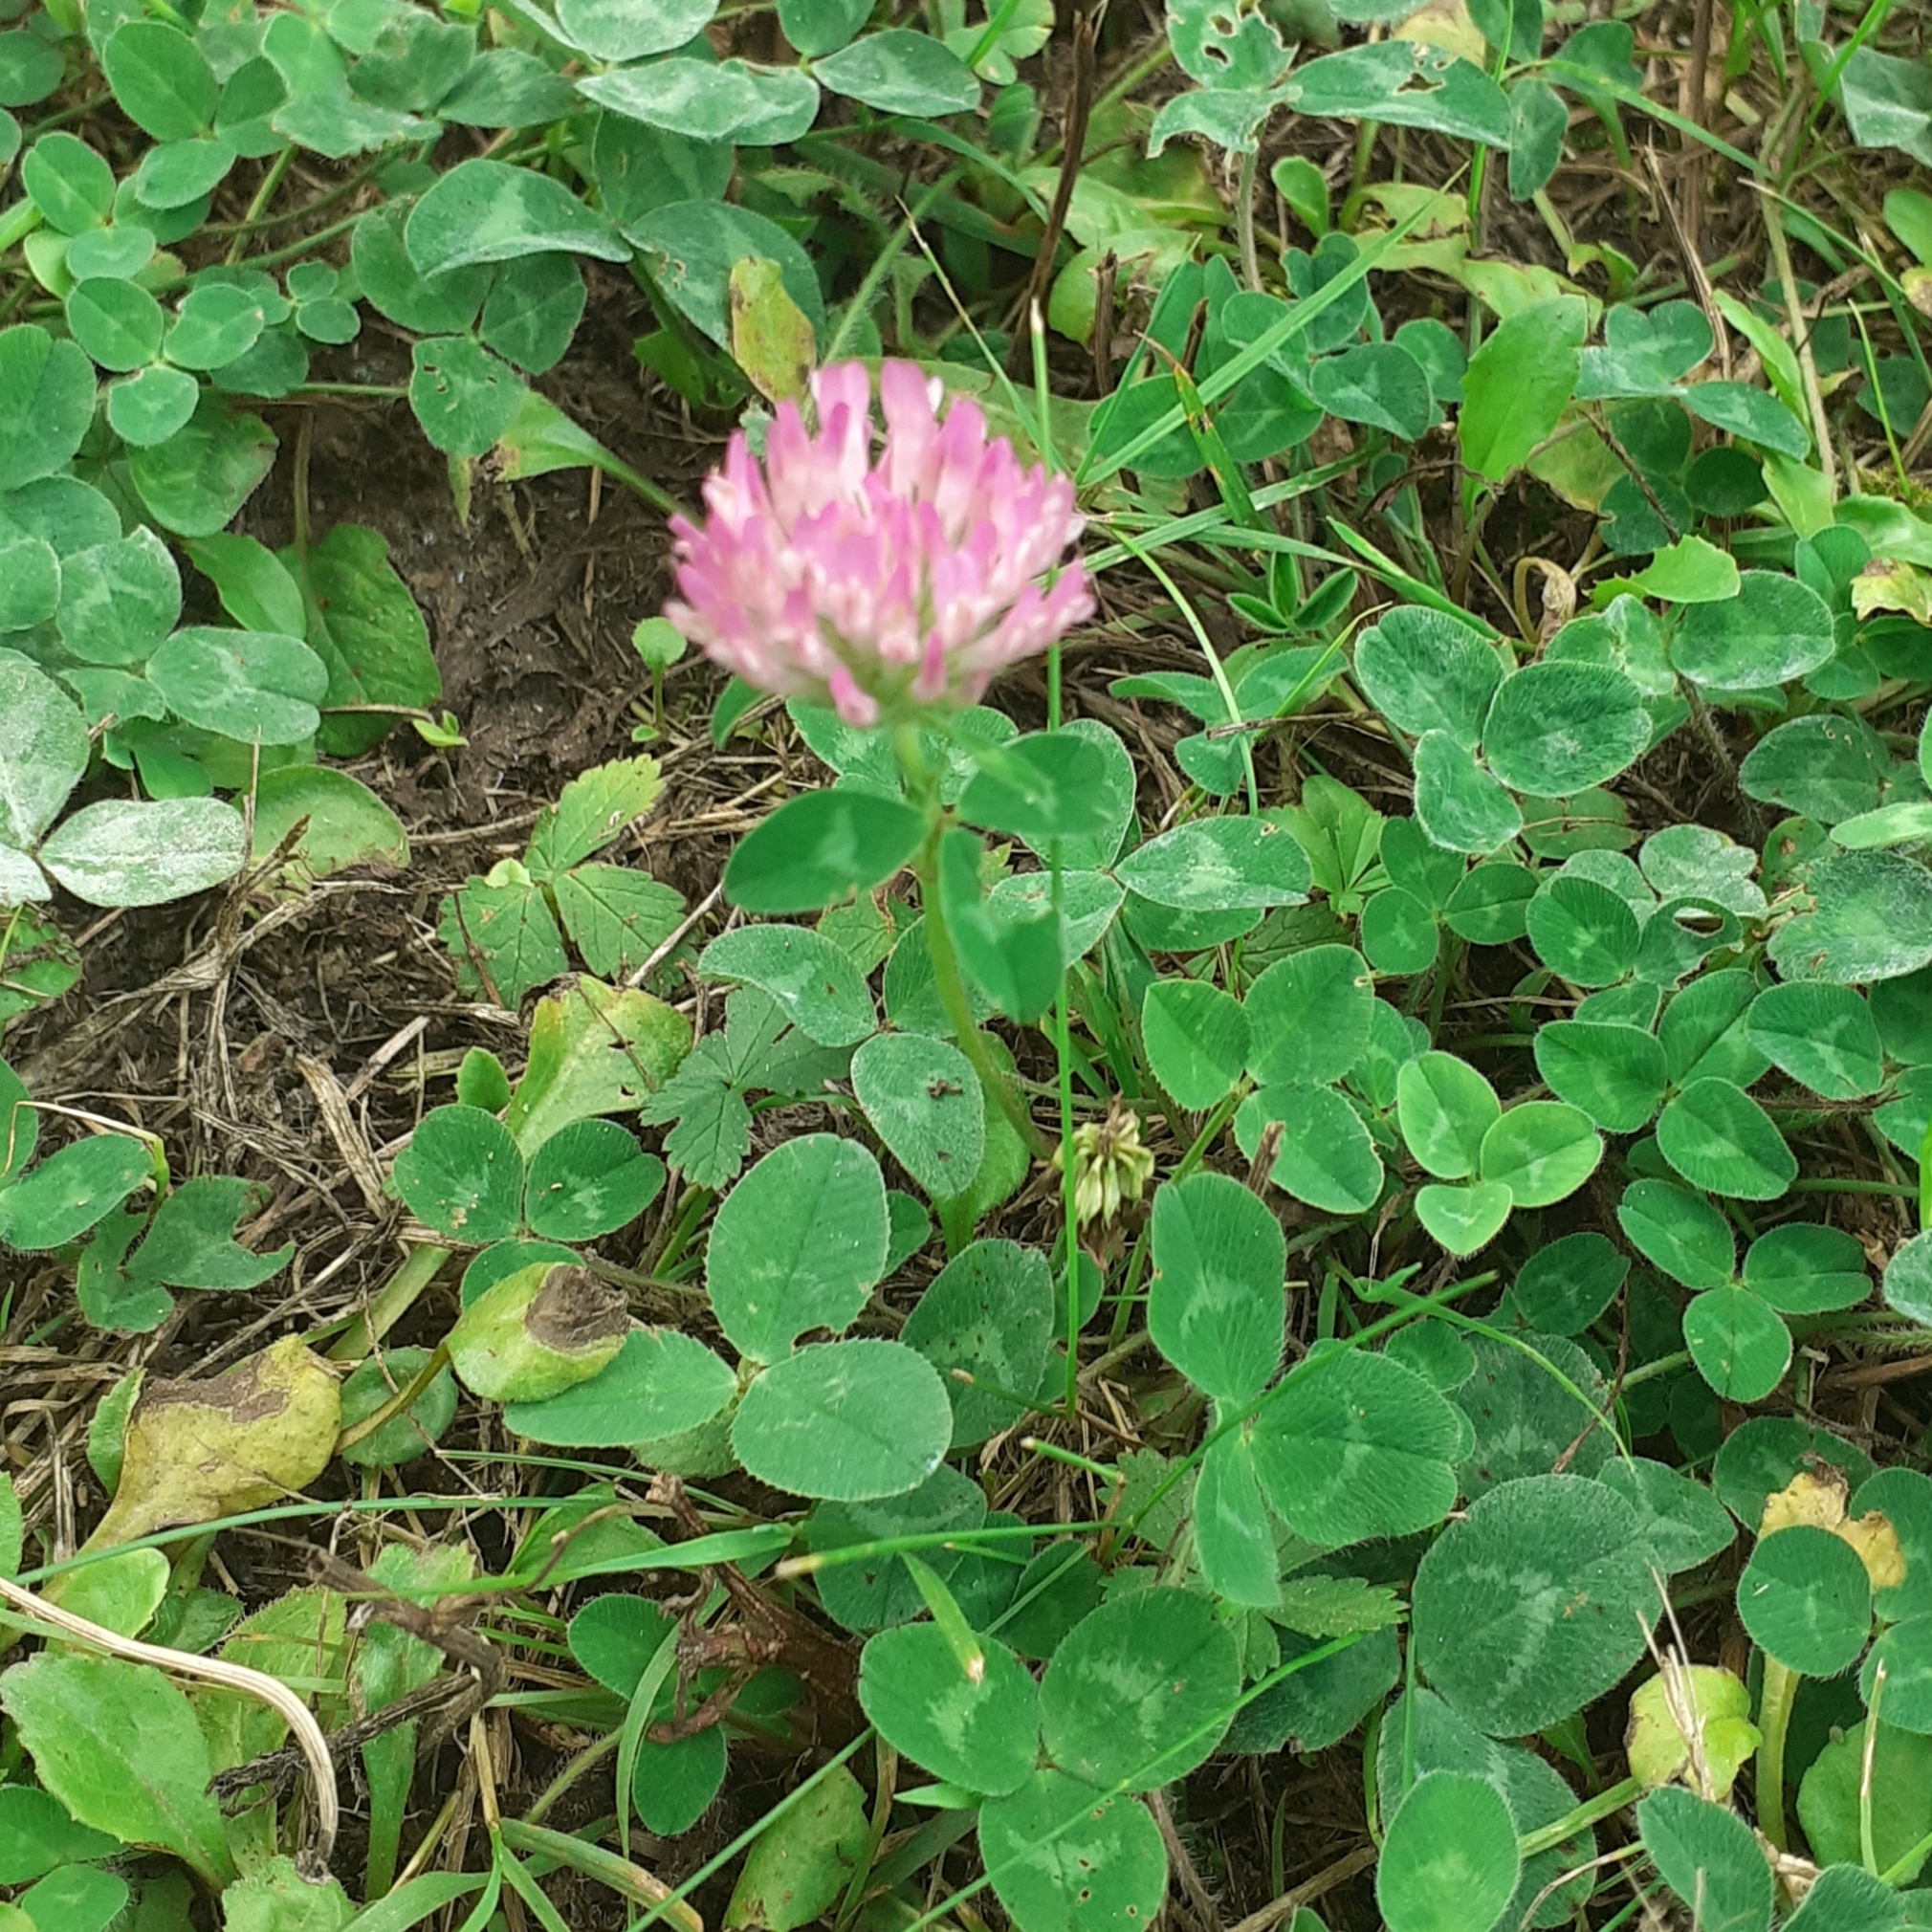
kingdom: Plantae
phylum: Tracheophyta
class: Magnoliopsida
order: Fabales
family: Fabaceae
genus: Trifolium
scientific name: Trifolium pratense
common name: Red clover
